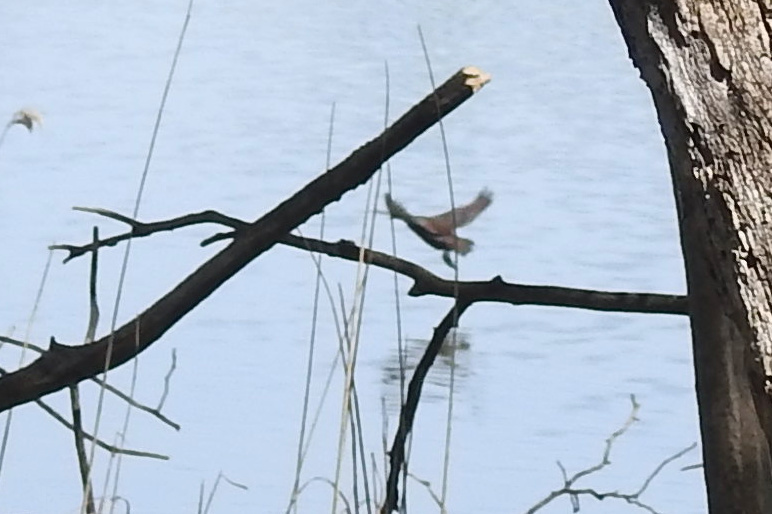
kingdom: Animalia
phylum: Chordata
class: Aves
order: Gruiformes
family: Rallidae
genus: Gallinula
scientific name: Gallinula chloropus
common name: Common moorhen
